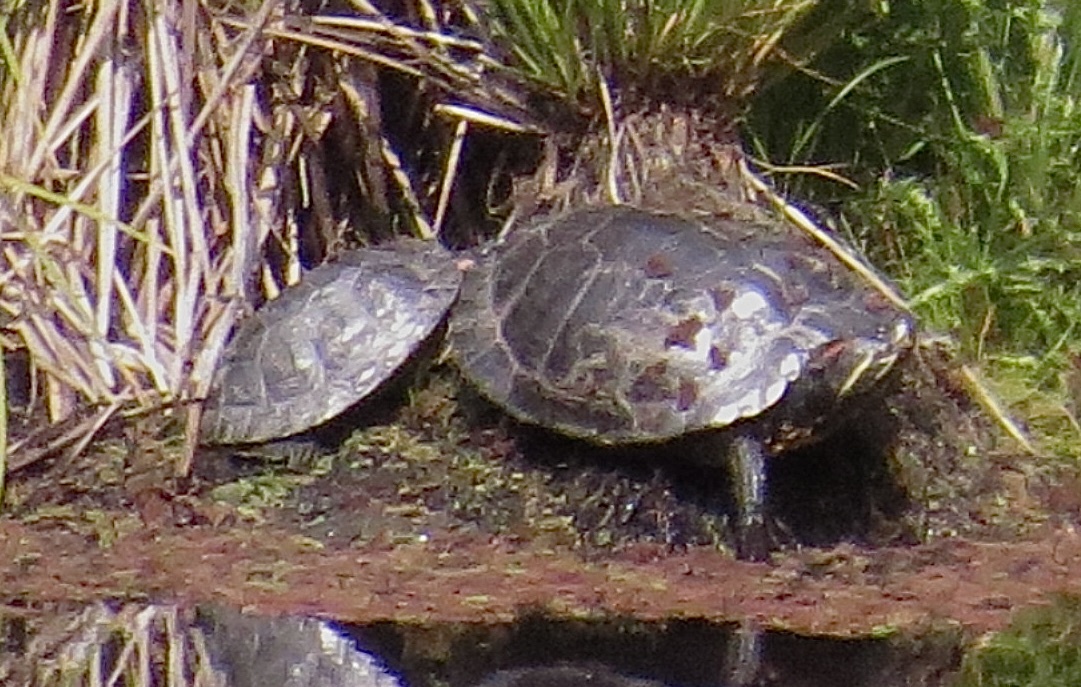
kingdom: Animalia
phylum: Chordata
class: Testudines
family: Emydidae
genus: Trachemys
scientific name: Trachemys scripta
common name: Slider
